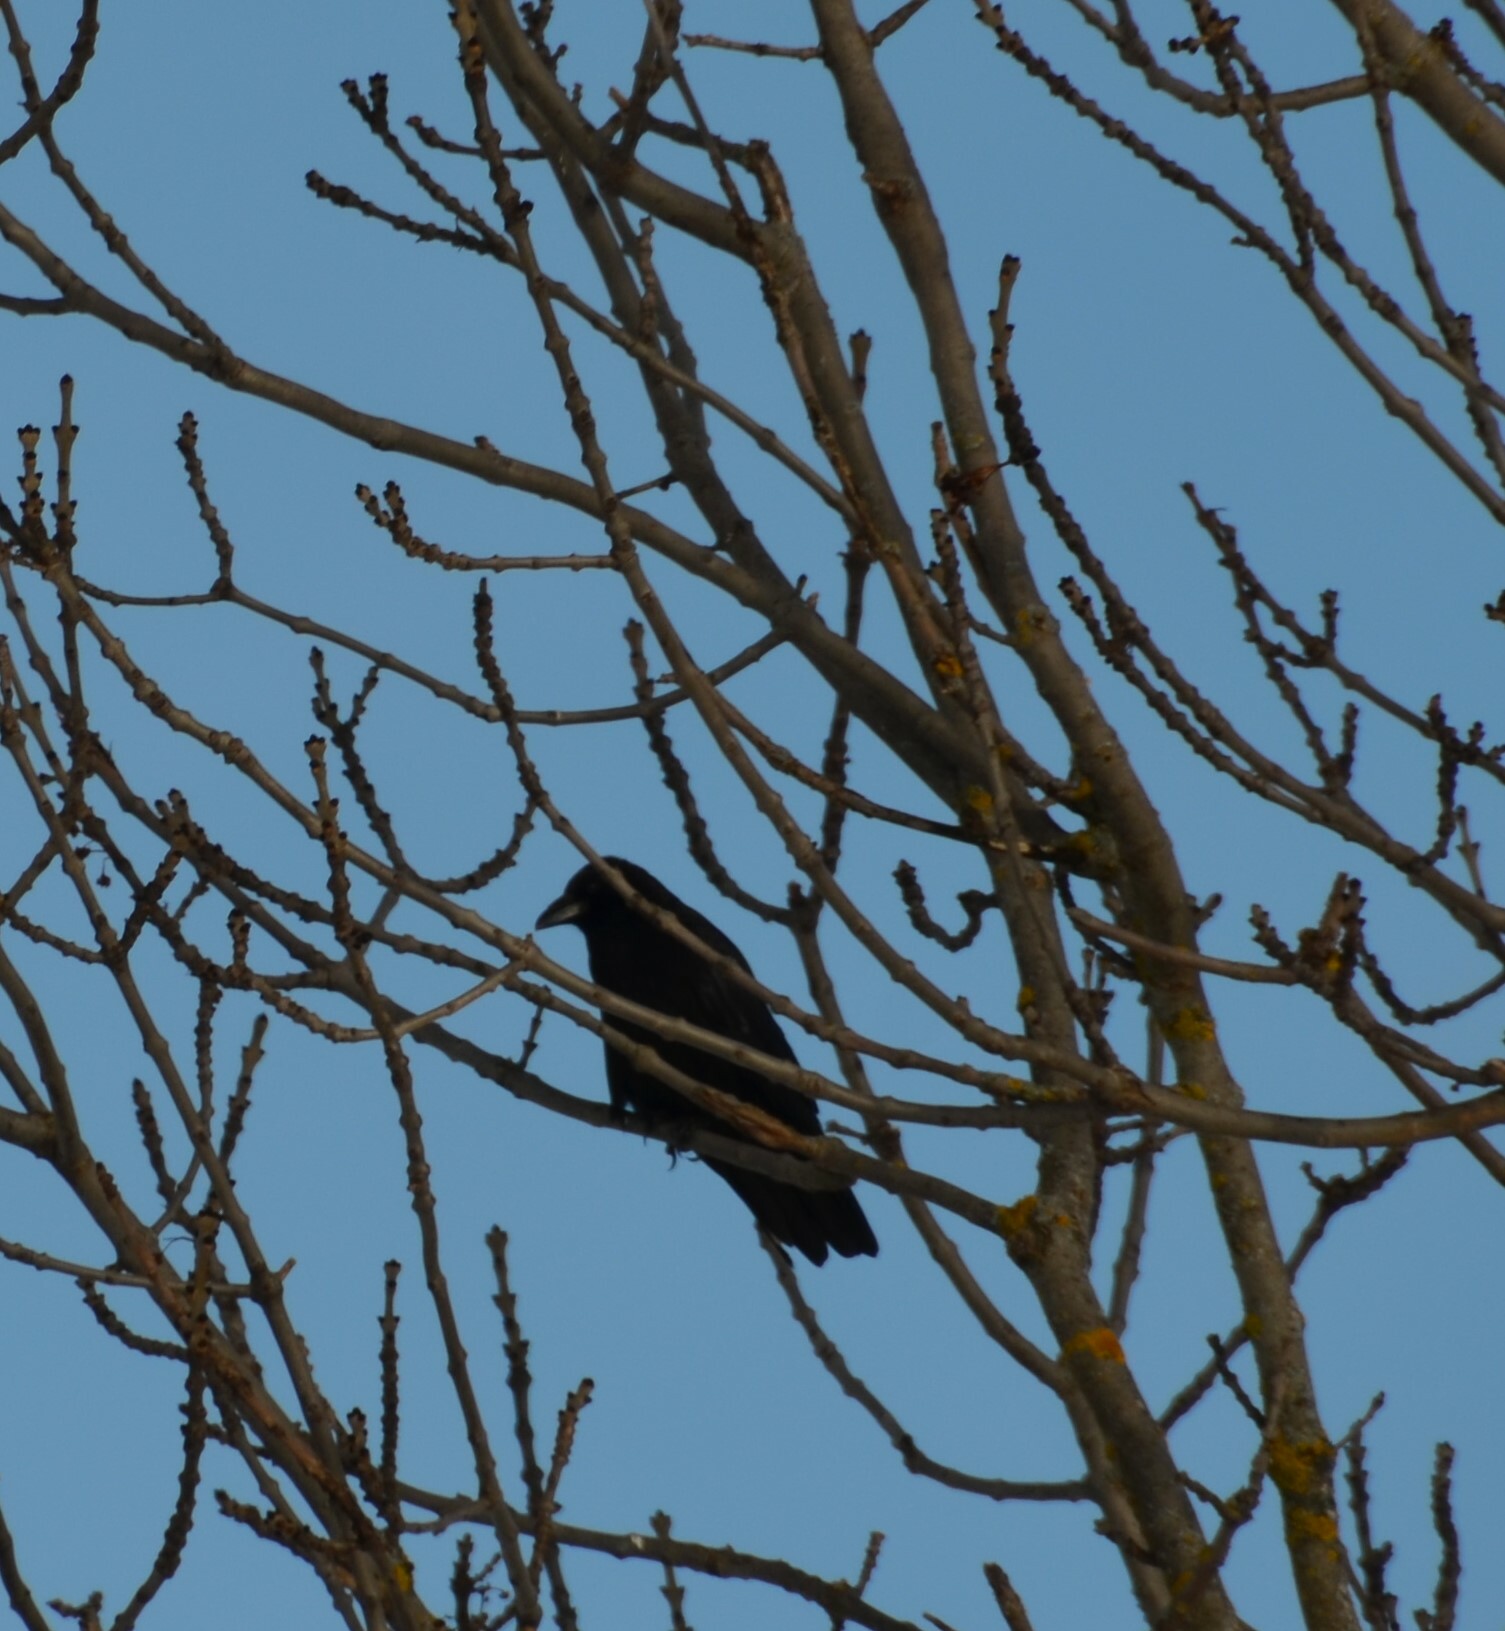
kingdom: Animalia
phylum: Chordata
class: Aves
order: Passeriformes
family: Corvidae
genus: Corvus
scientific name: Corvus corone
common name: Carrion crow
